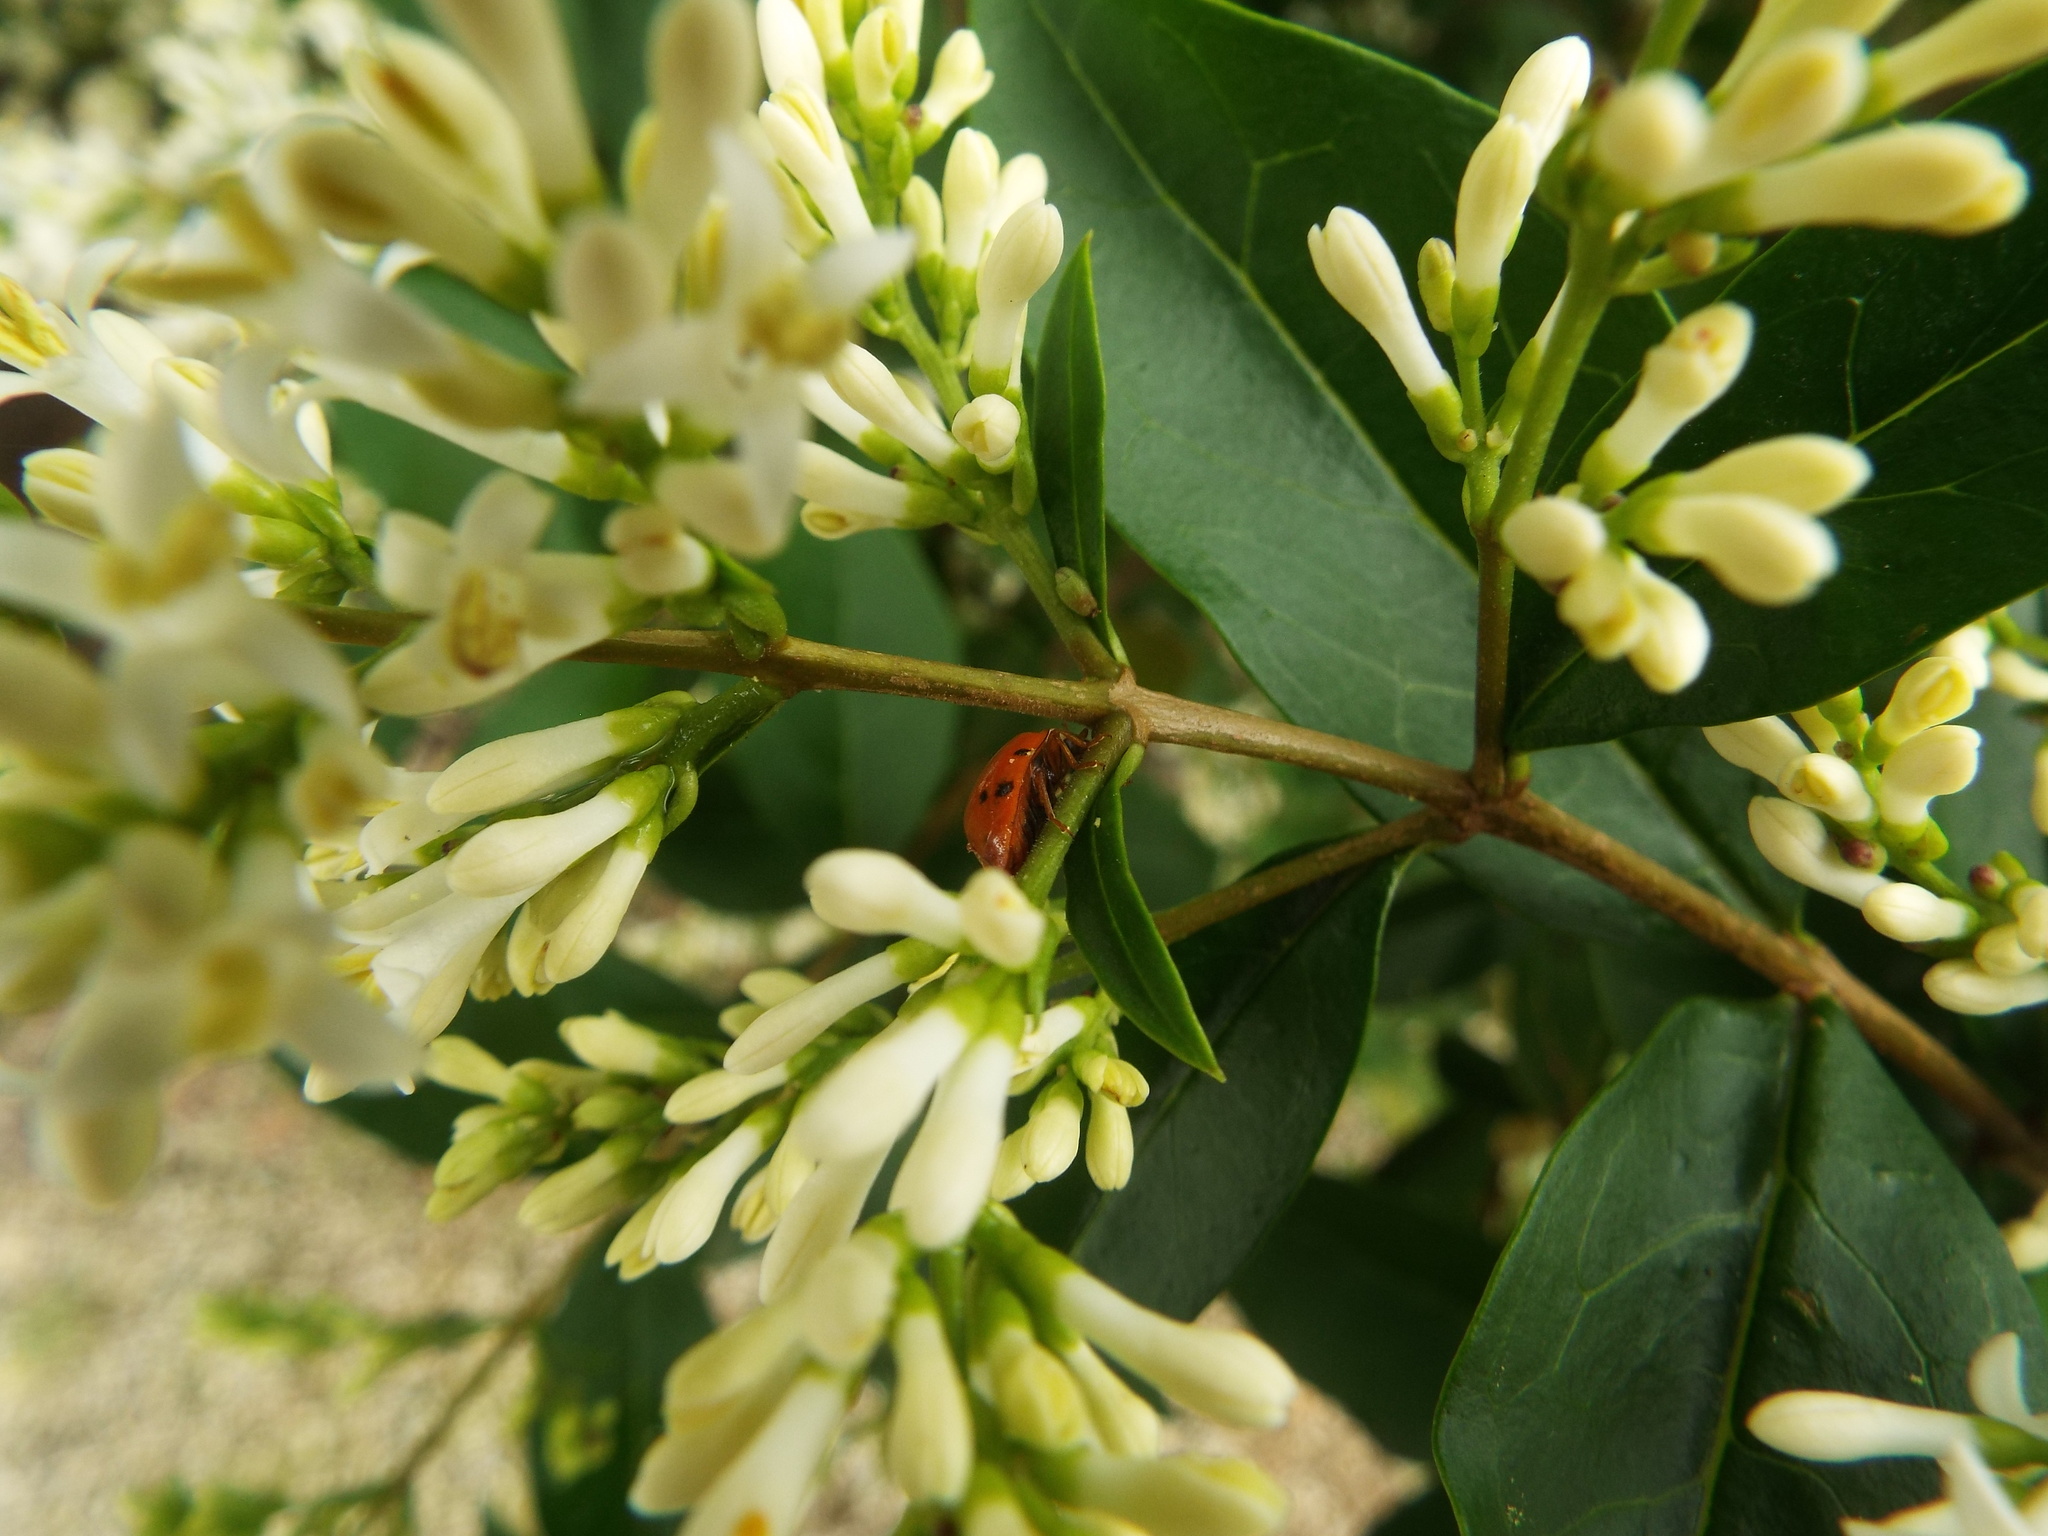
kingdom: Animalia
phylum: Arthropoda
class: Insecta
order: Coleoptera
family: Coccinellidae
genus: Harmonia
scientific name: Harmonia axyridis
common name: Harlequin ladybird
